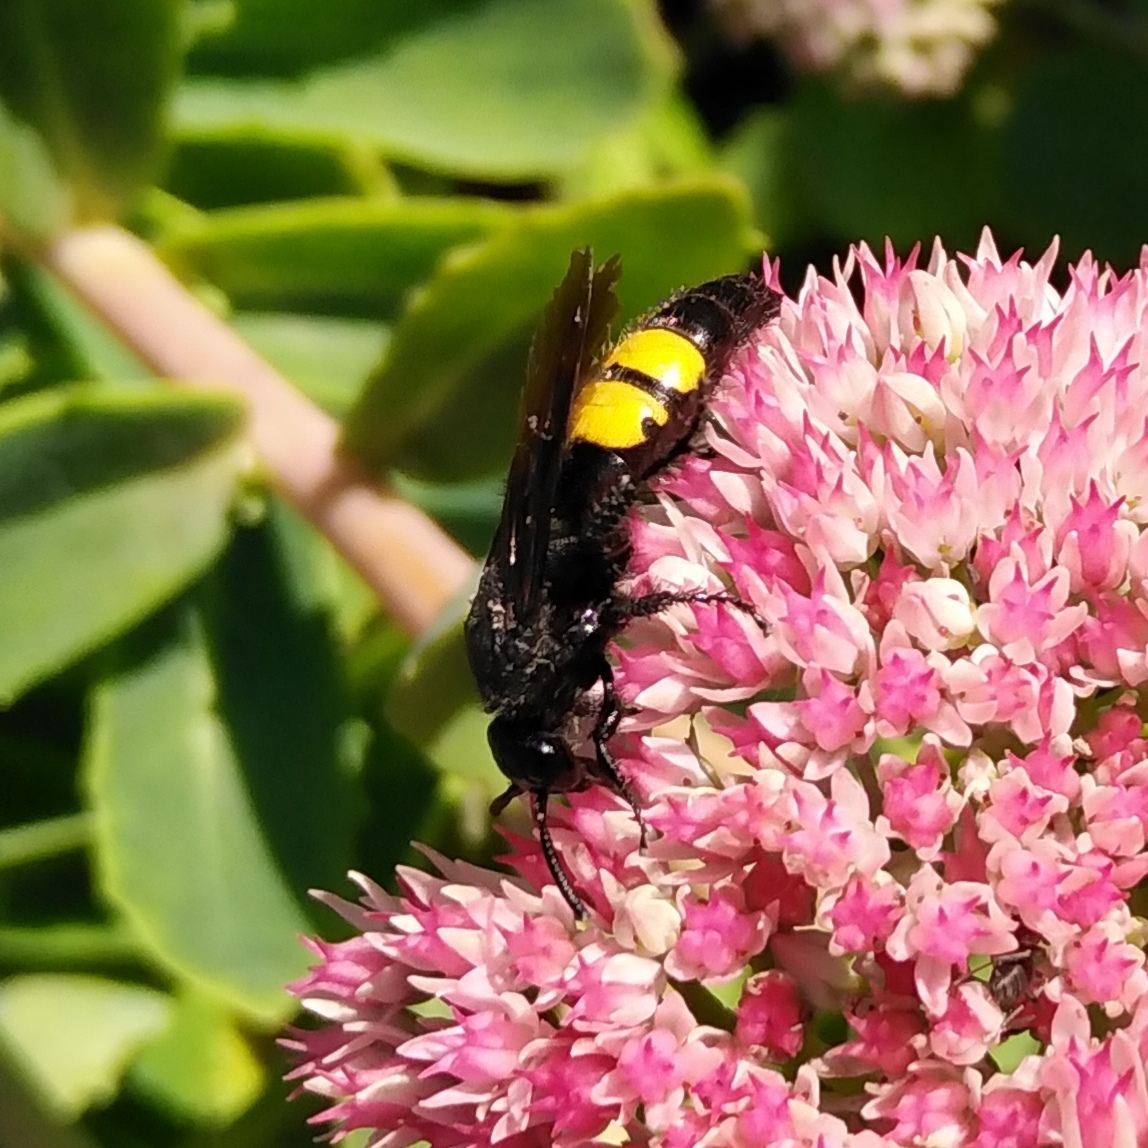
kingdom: Animalia
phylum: Arthropoda
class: Insecta
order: Hymenoptera
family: Scoliidae
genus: Scolia
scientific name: Scolia hirta
